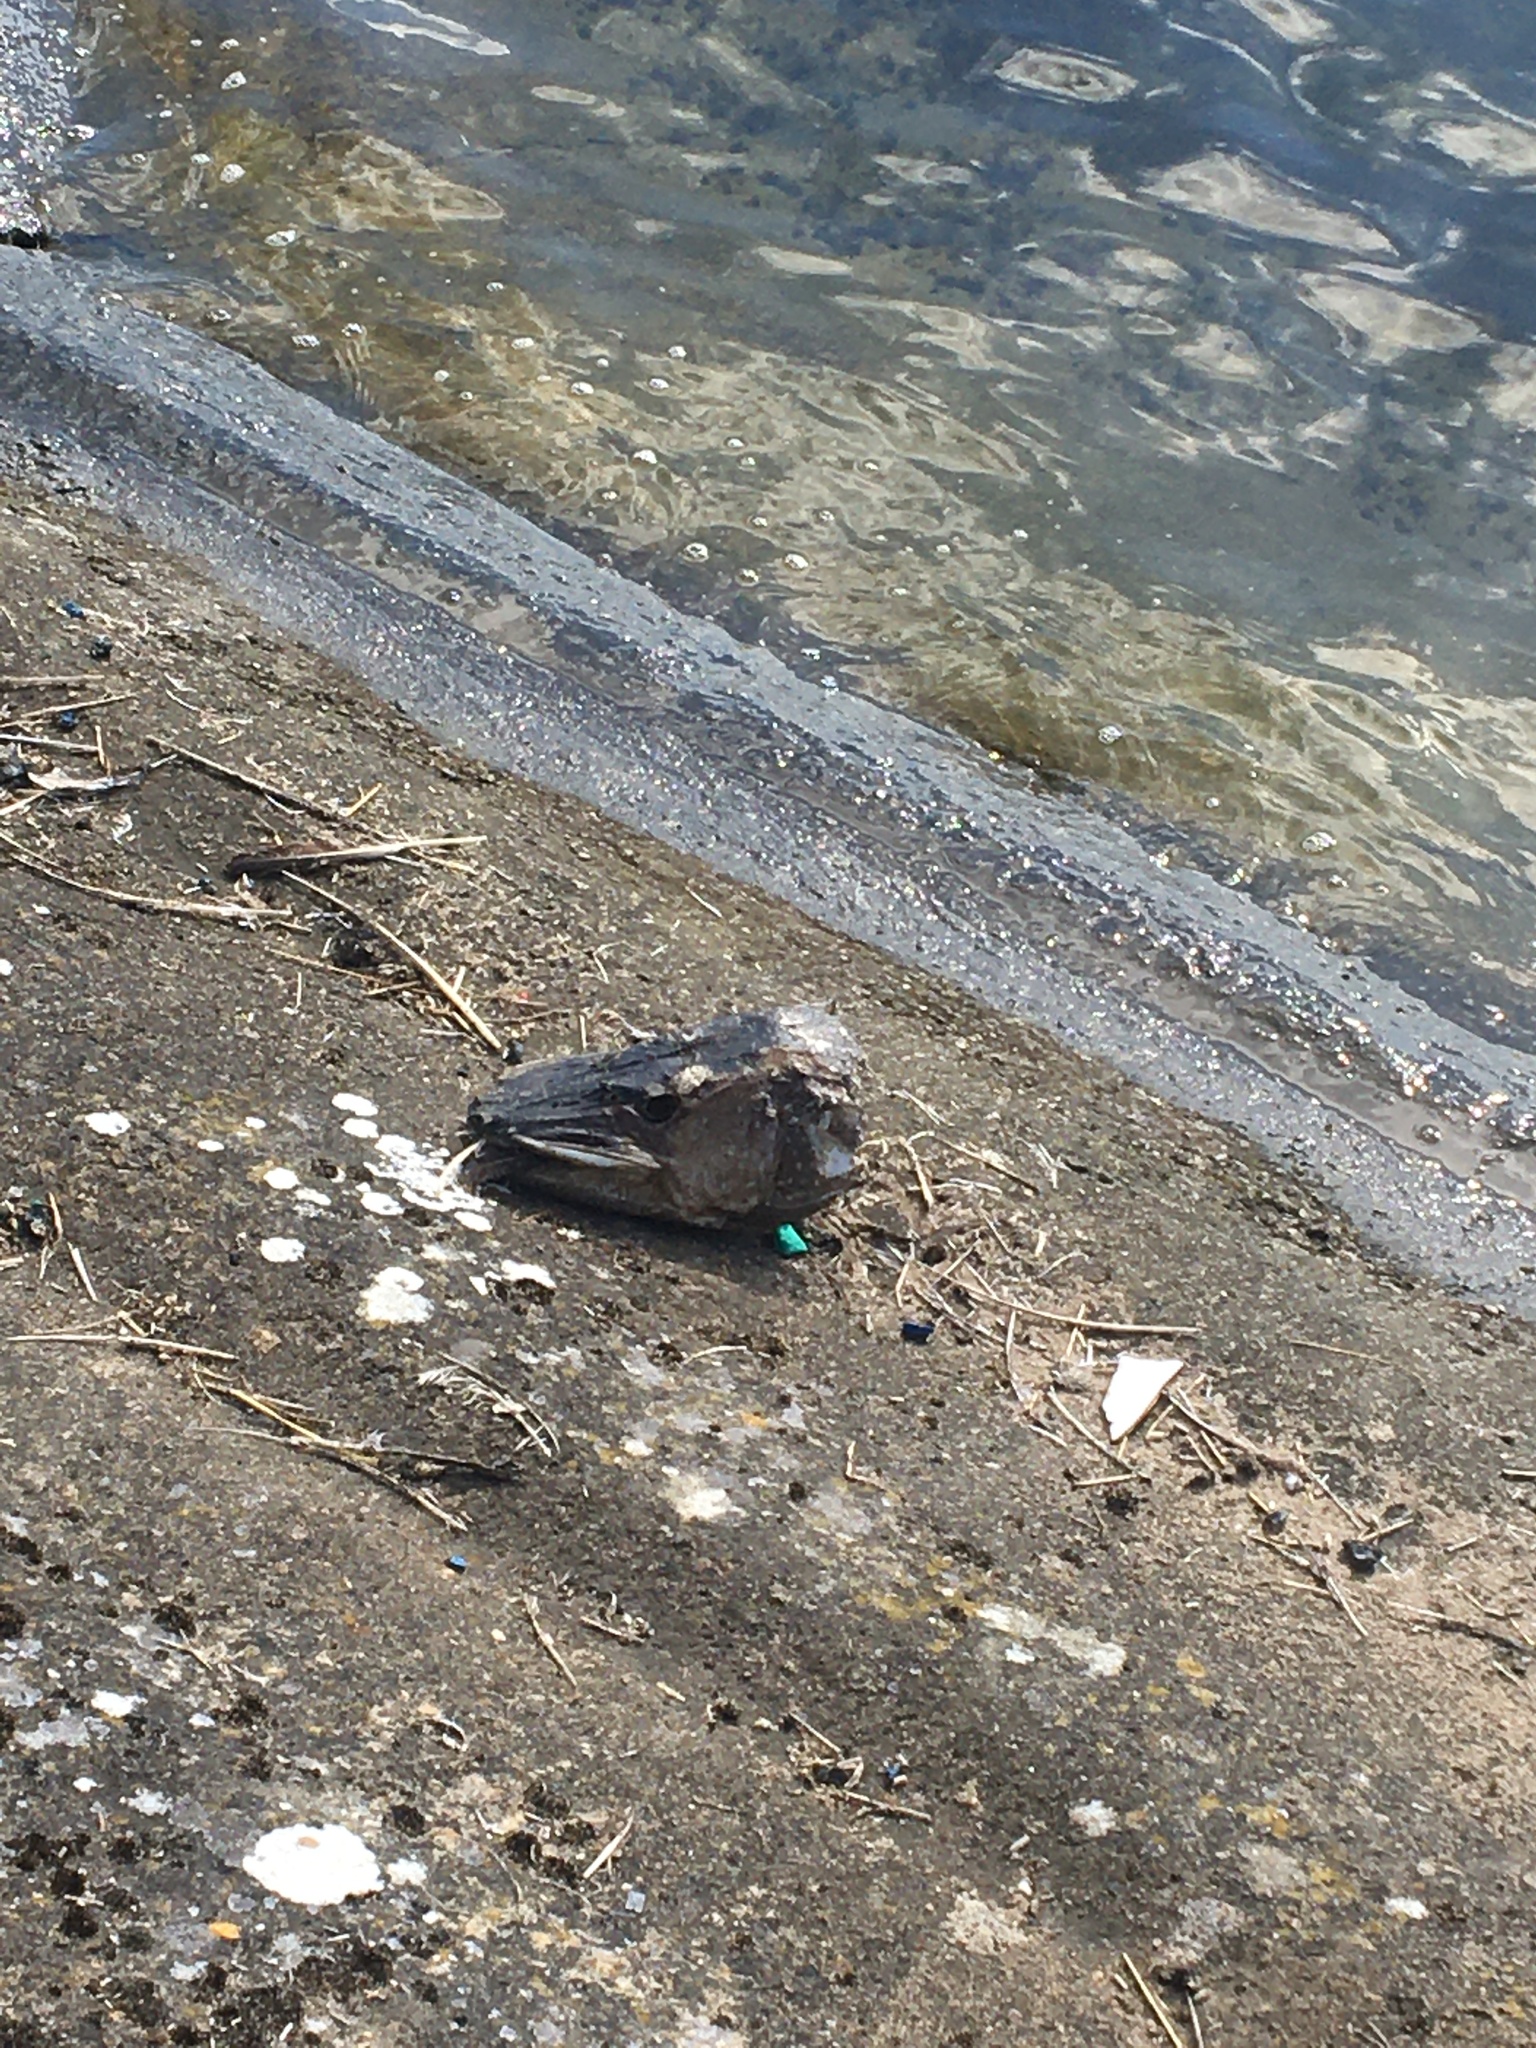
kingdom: Animalia
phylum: Chordata
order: Esociformes
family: Esocidae
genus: Esox
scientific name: Esox lucius
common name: Northern pike
